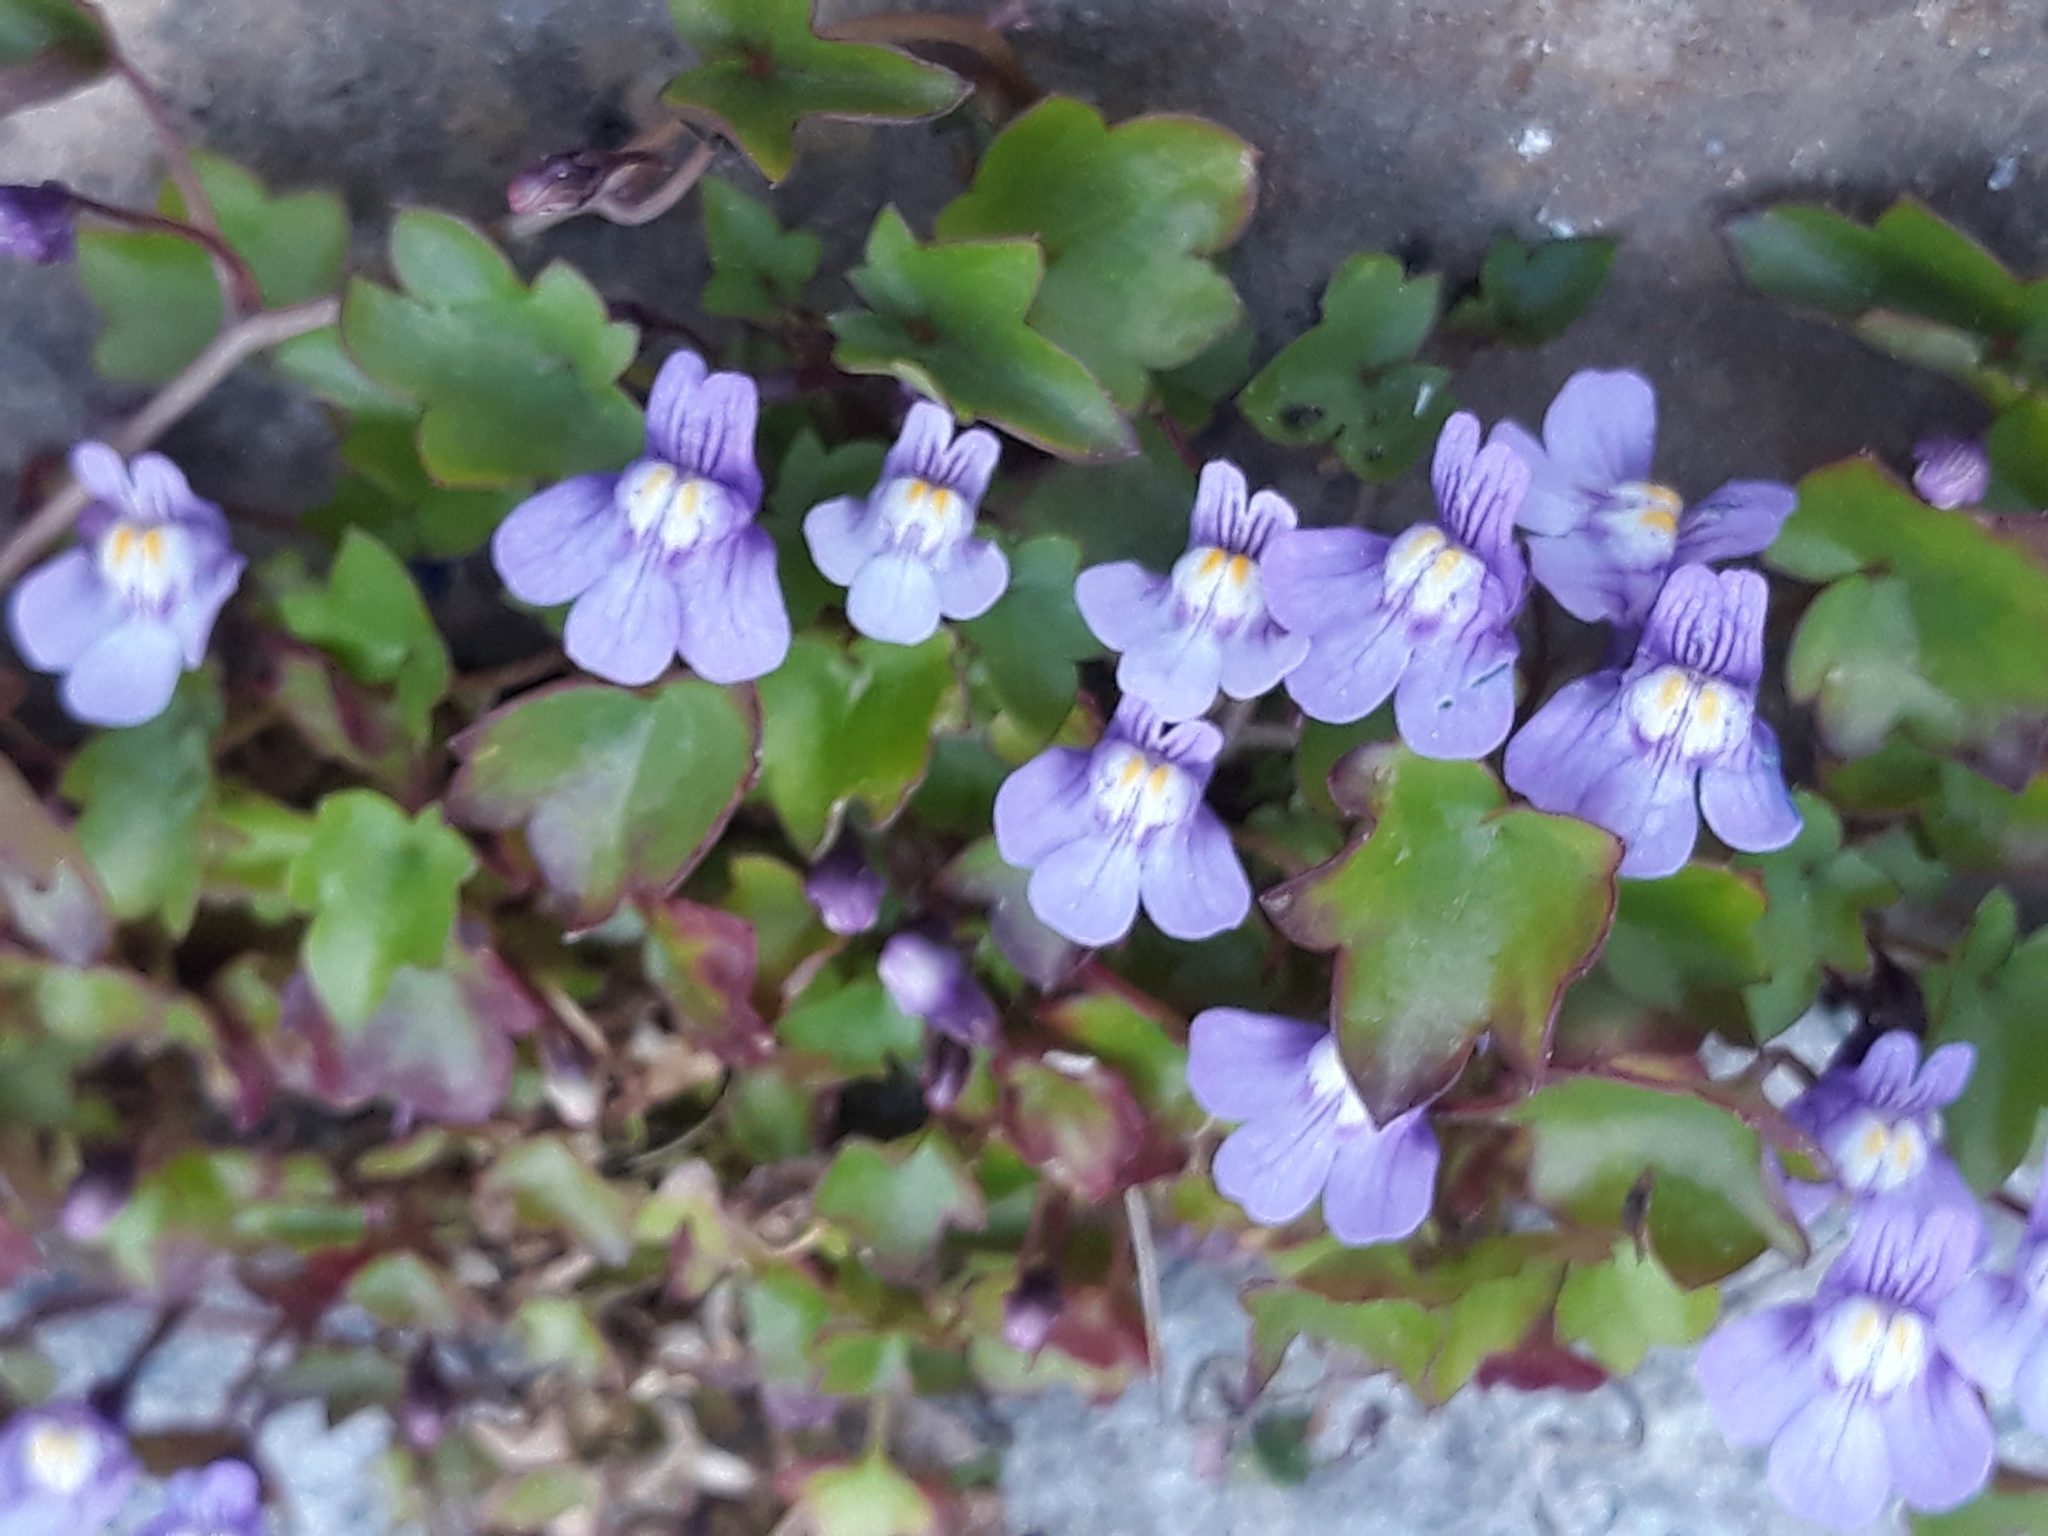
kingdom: Plantae
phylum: Tracheophyta
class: Magnoliopsida
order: Lamiales
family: Plantaginaceae
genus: Cymbalaria
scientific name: Cymbalaria muralis
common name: Ivy-leaved toadflax
